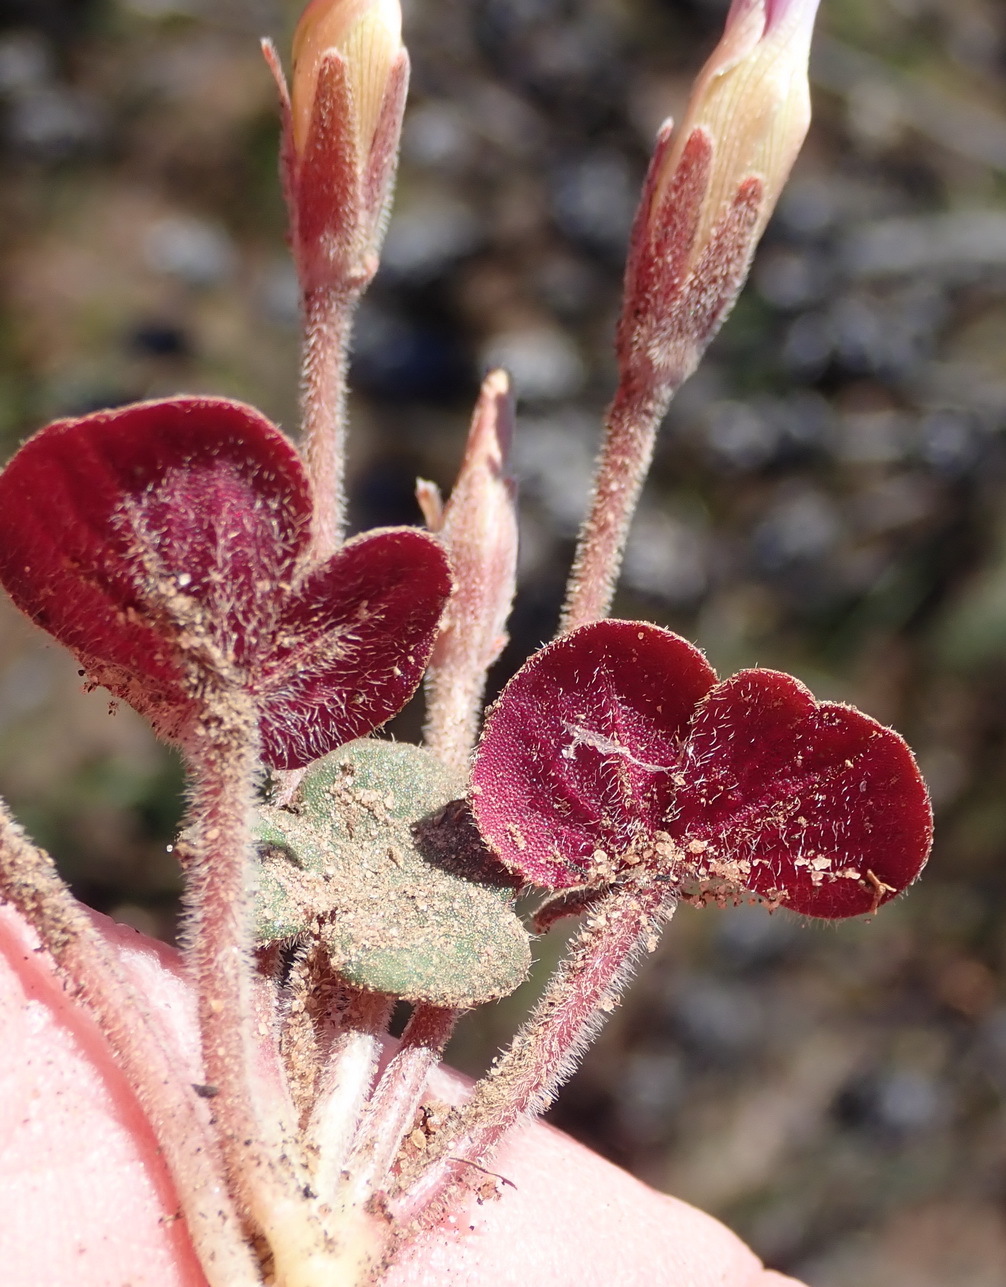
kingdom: Plantae
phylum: Tracheophyta
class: Magnoliopsida
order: Oxalidales
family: Oxalidaceae
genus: Oxalis
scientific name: Oxalis algoensis
